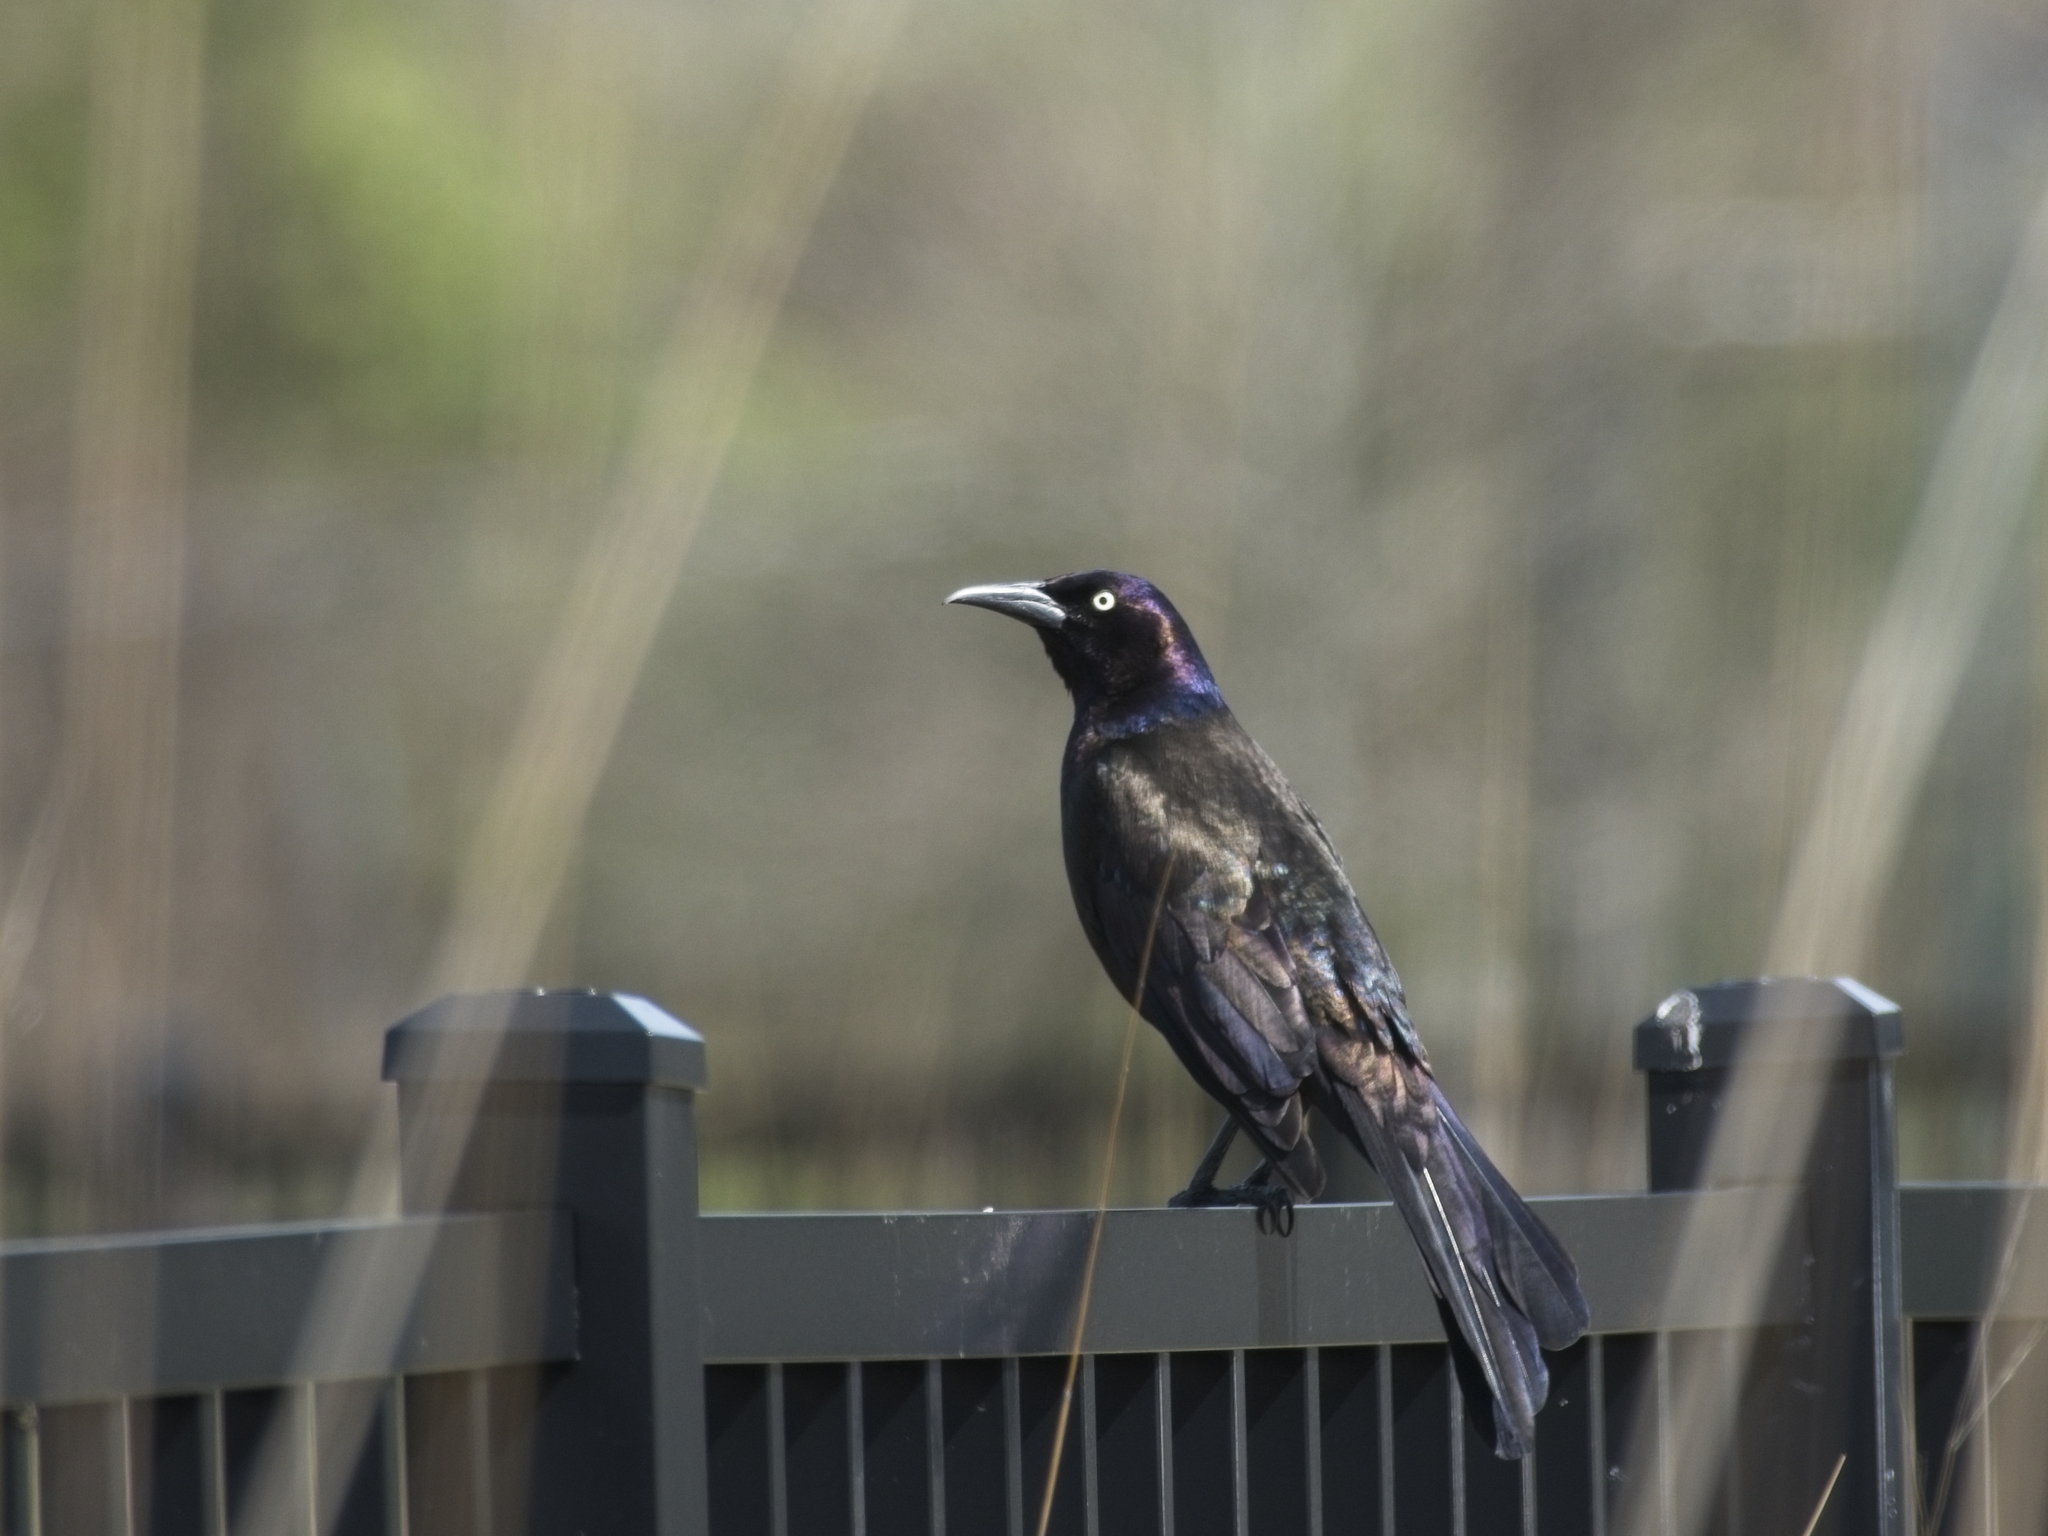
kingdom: Animalia
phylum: Chordata
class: Aves
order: Passeriformes
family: Icteridae
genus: Quiscalus
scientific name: Quiscalus quiscula
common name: Common grackle
